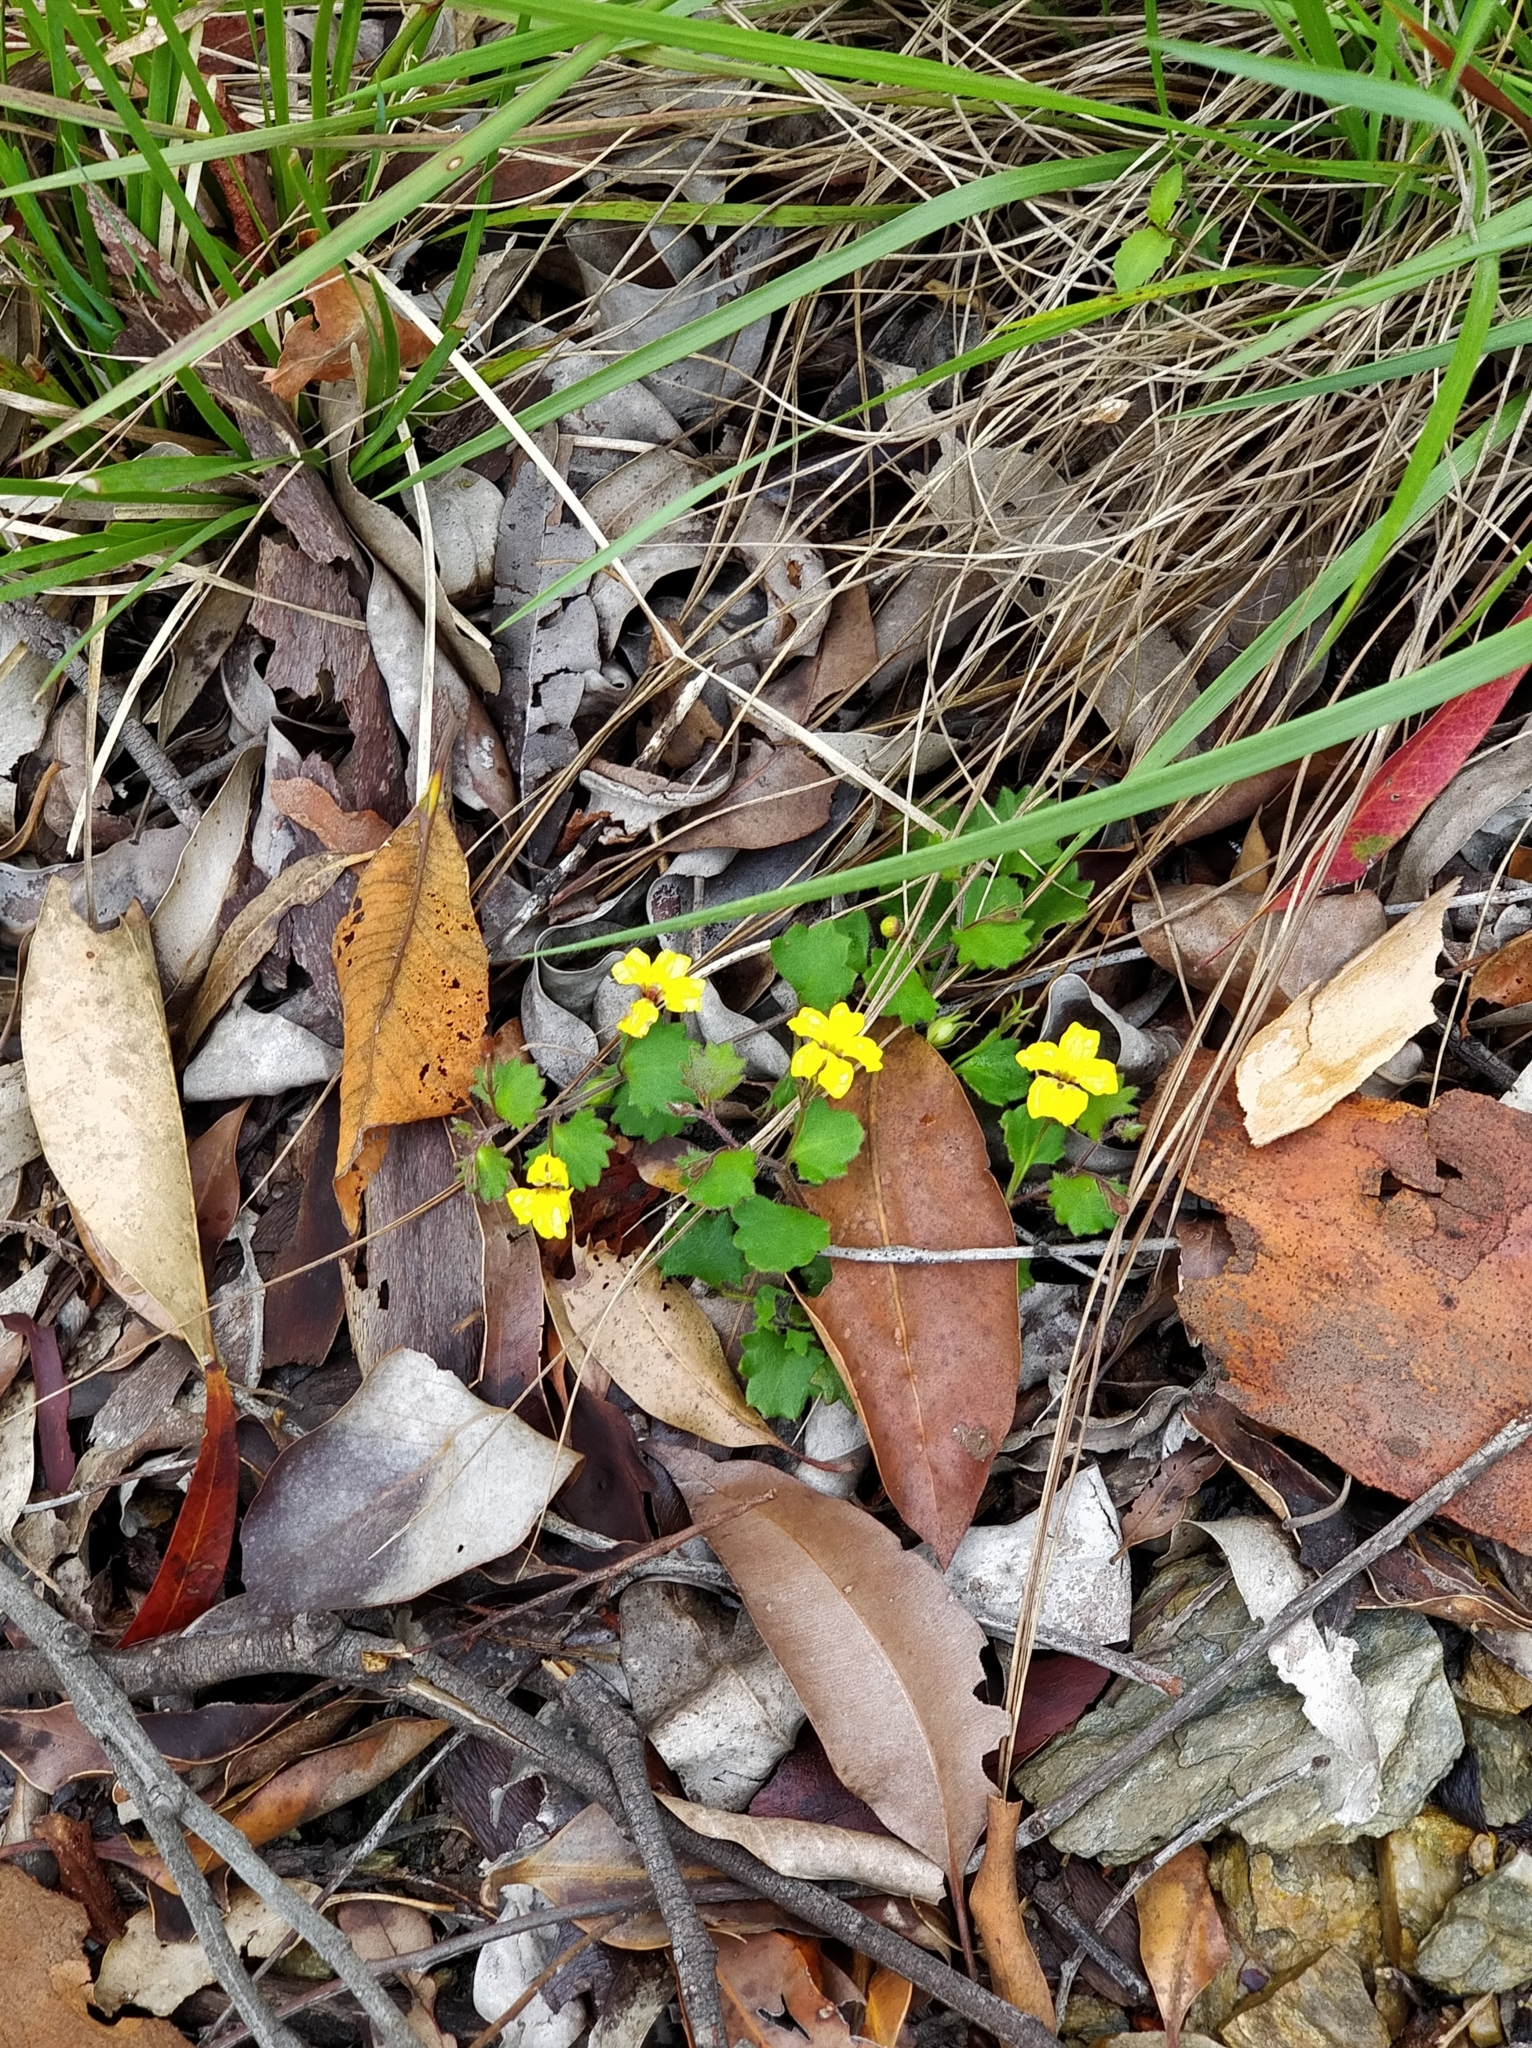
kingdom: Plantae
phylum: Tracheophyta
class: Magnoliopsida
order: Asterales
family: Goodeniaceae
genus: Goodenia
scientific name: Goodenia rotundifolia
